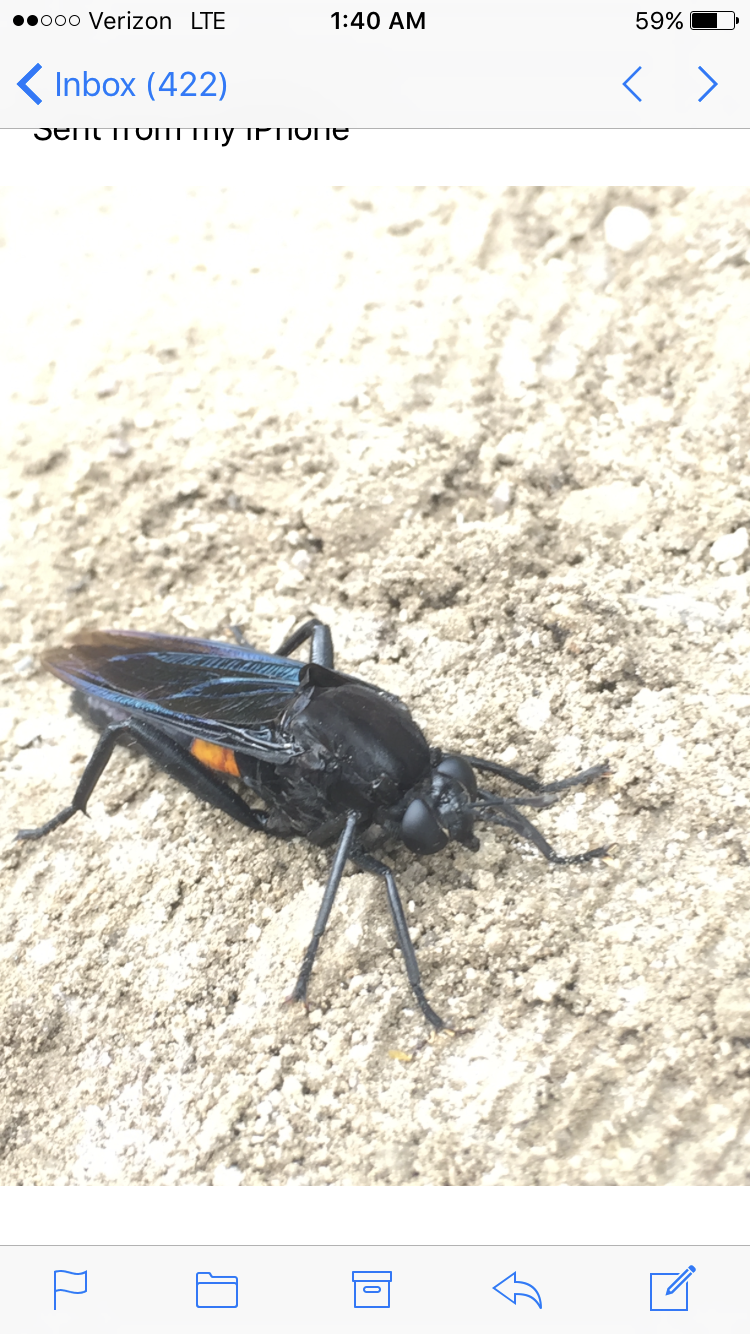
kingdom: Animalia
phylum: Arthropoda
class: Insecta
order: Diptera
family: Mydidae
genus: Mydas
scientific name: Mydas clavatus
